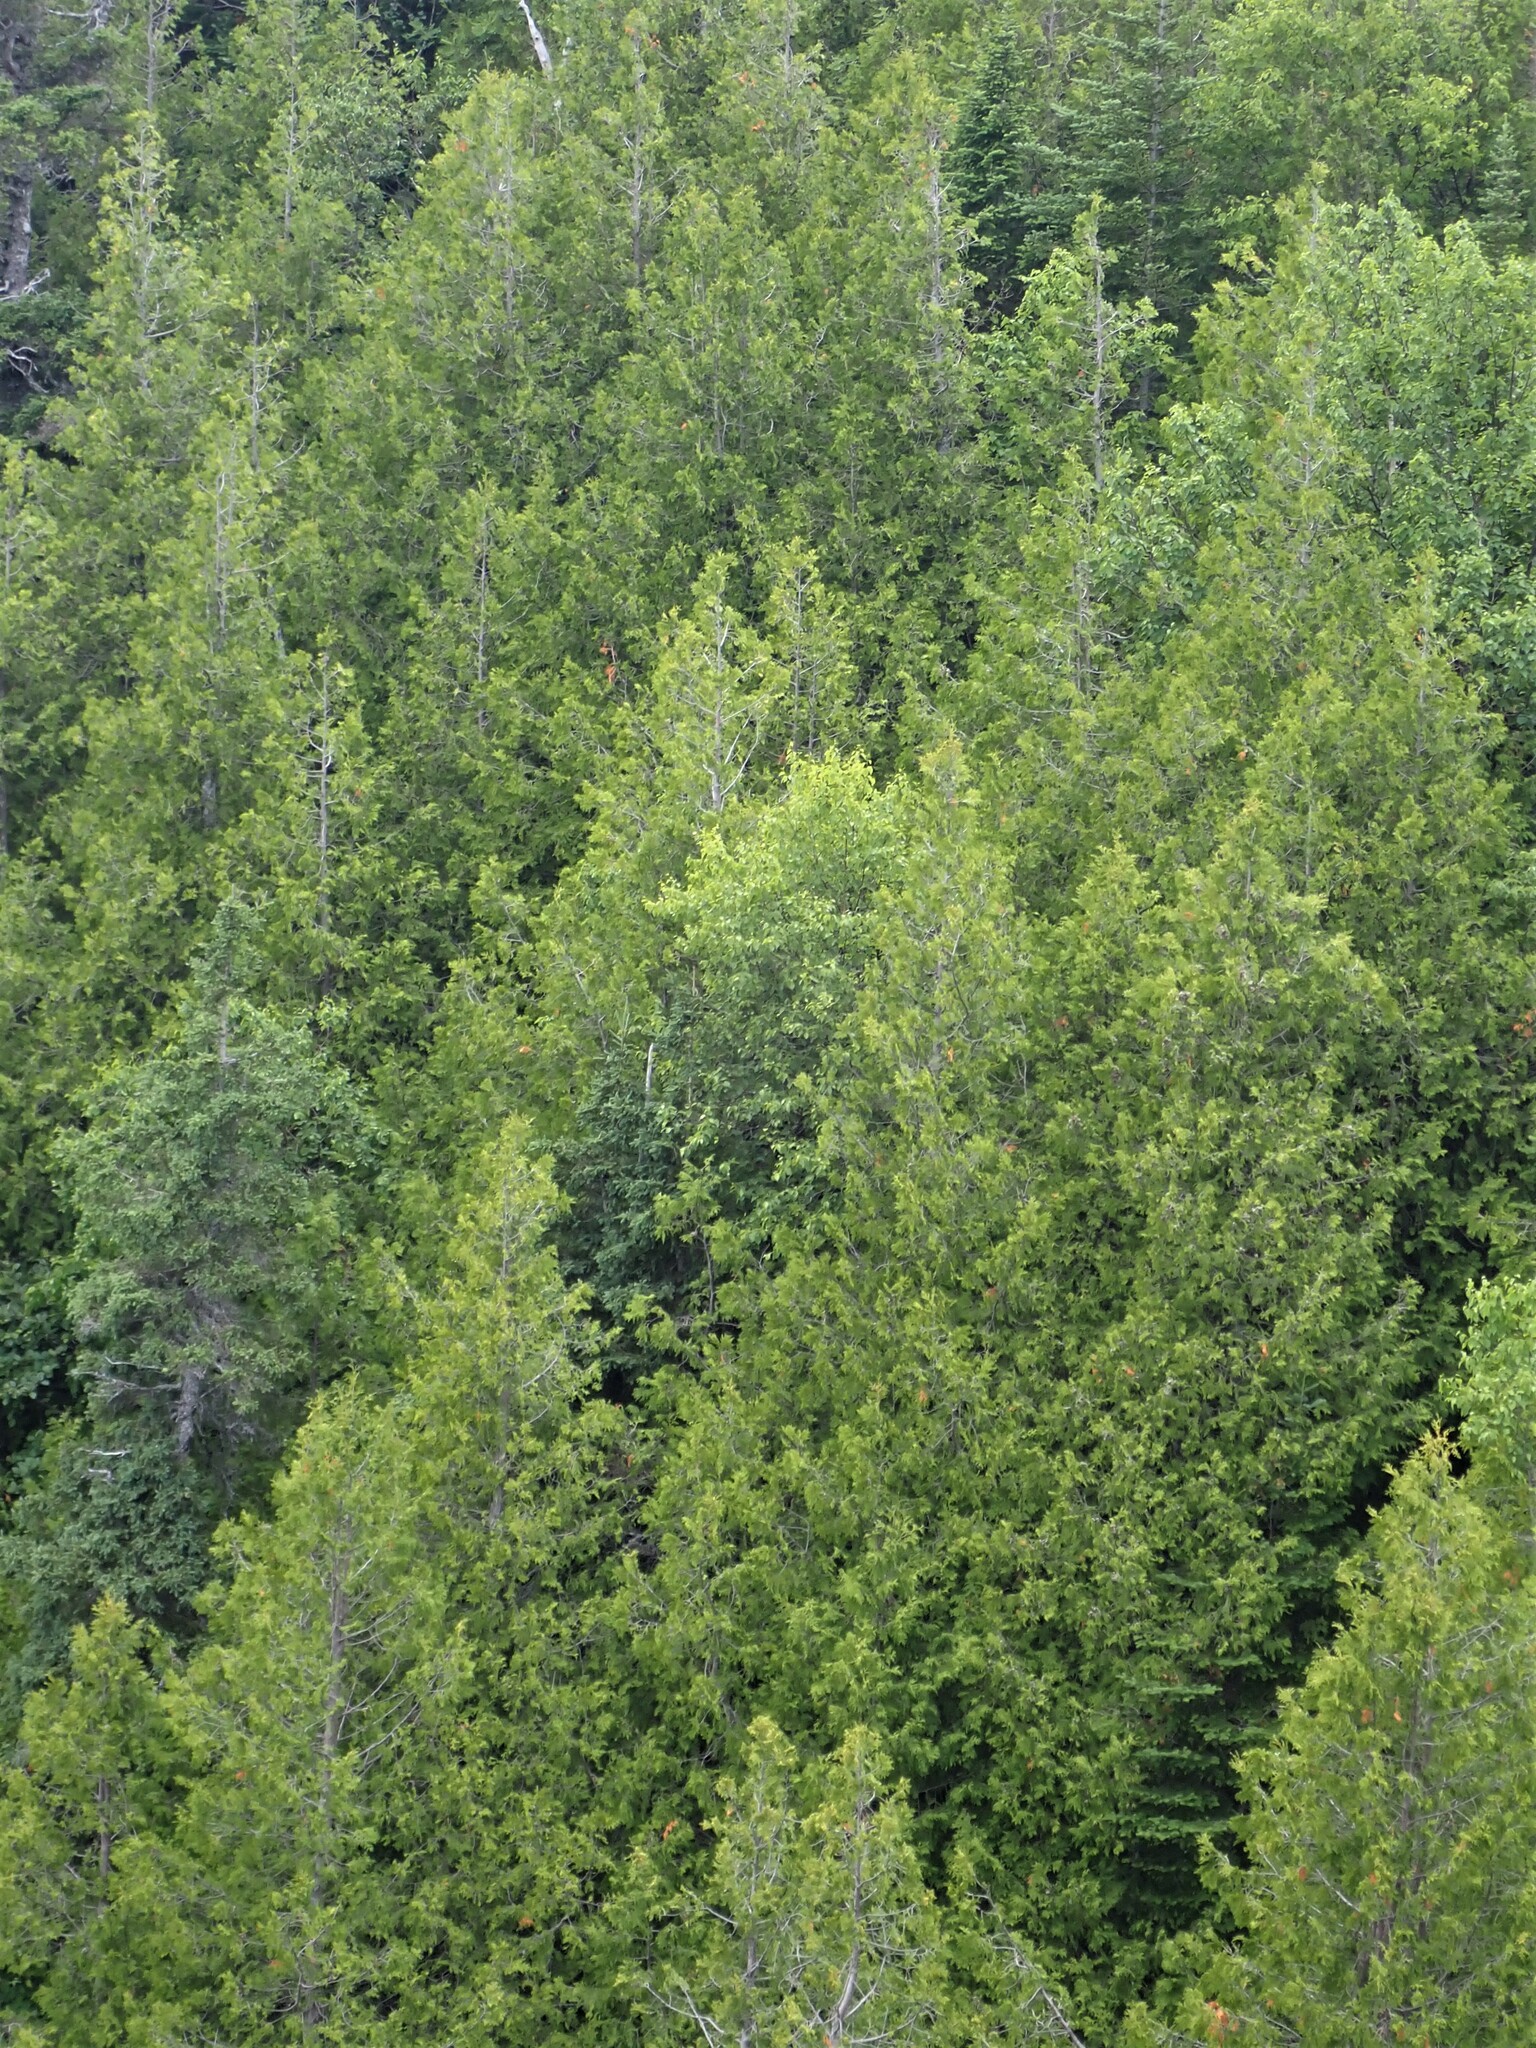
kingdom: Plantae
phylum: Tracheophyta
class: Pinopsida
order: Pinales
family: Cupressaceae
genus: Thuja
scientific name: Thuja occidentalis
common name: Northern white-cedar
